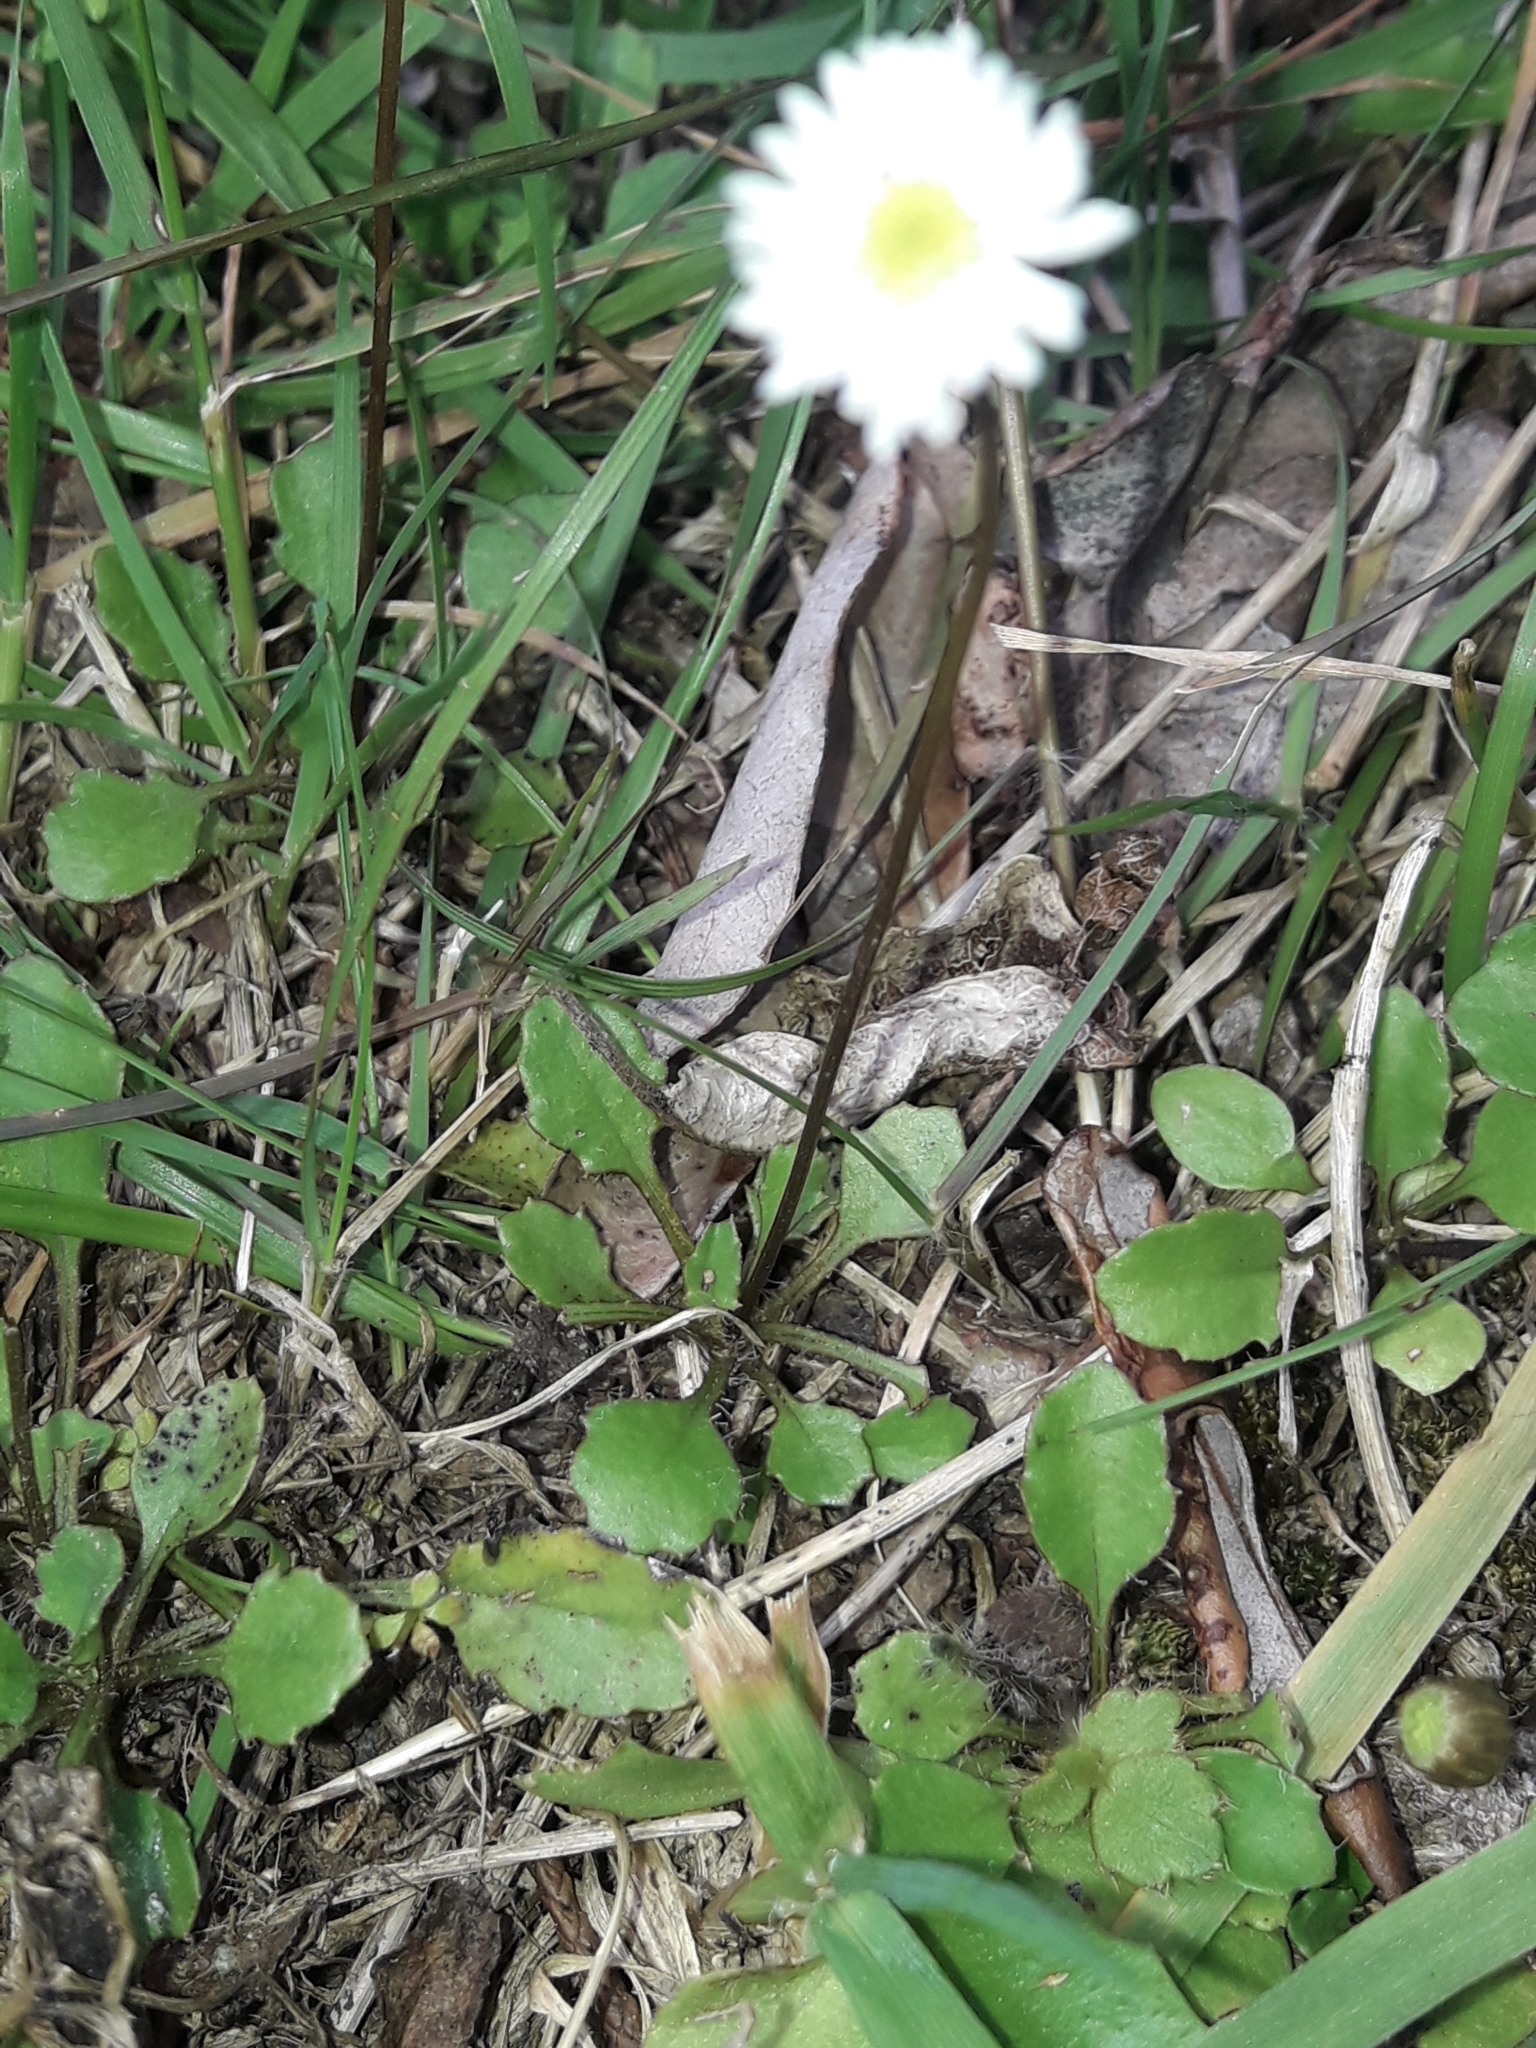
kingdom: Plantae
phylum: Tracheophyta
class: Magnoliopsida
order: Asterales
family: Asteraceae
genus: Lagenophora
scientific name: Lagenophora pumila
